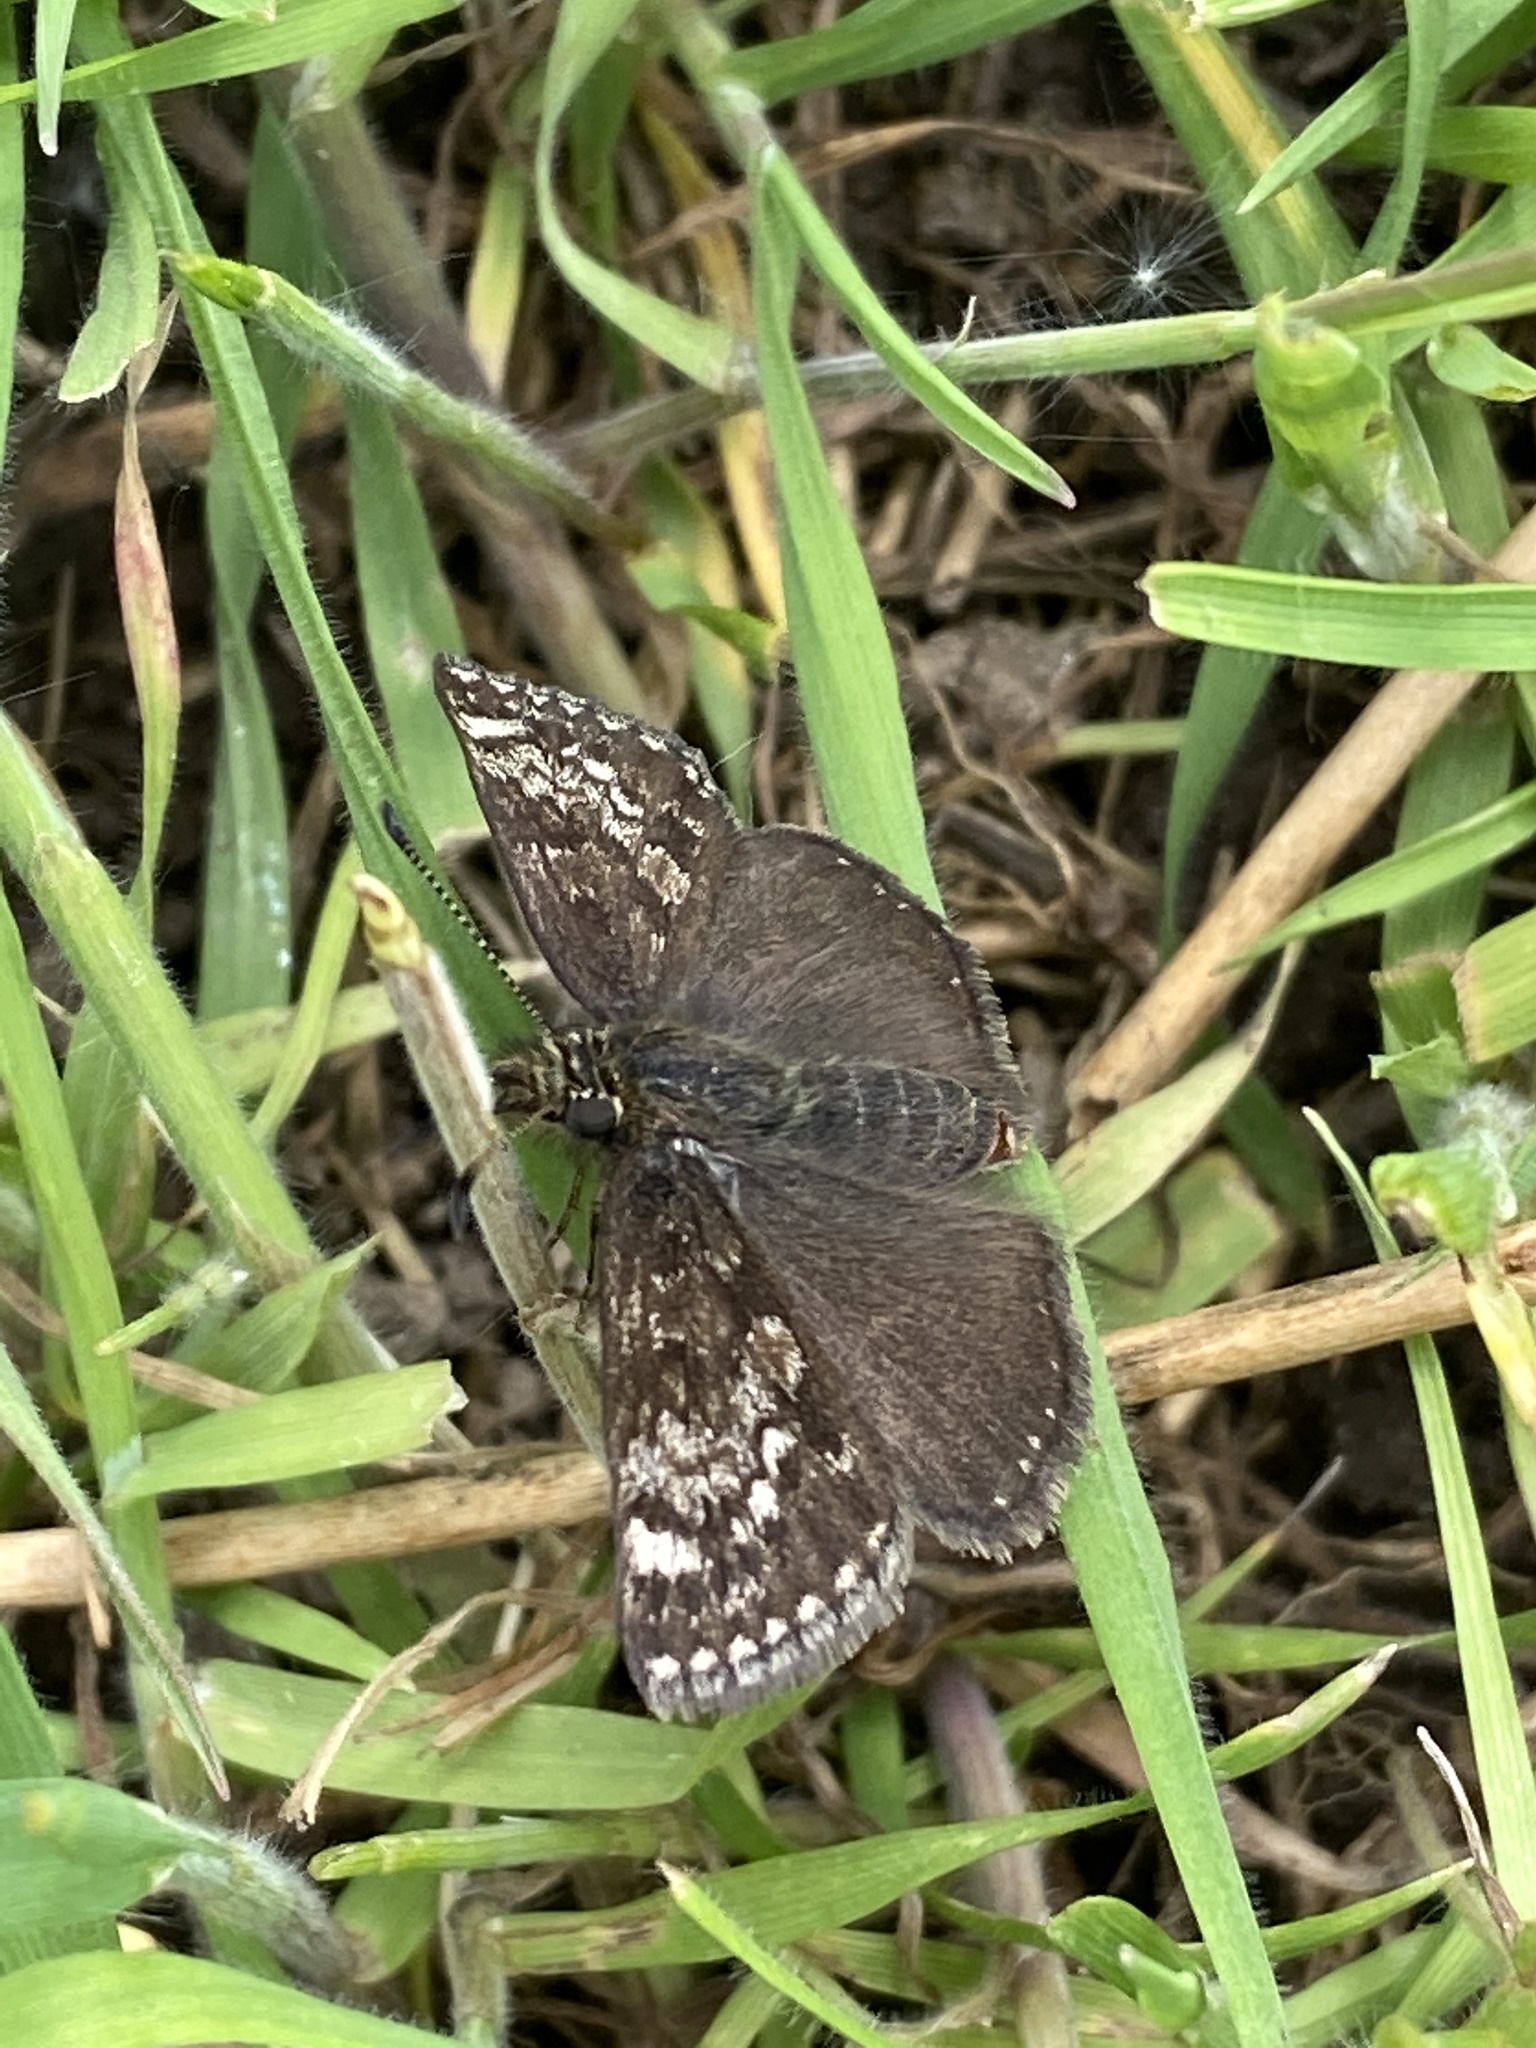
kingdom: Animalia
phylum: Arthropoda
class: Insecta
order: Lepidoptera
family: Hesperiidae
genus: Erynnis
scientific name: Erynnis tages
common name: Dingy skipper
